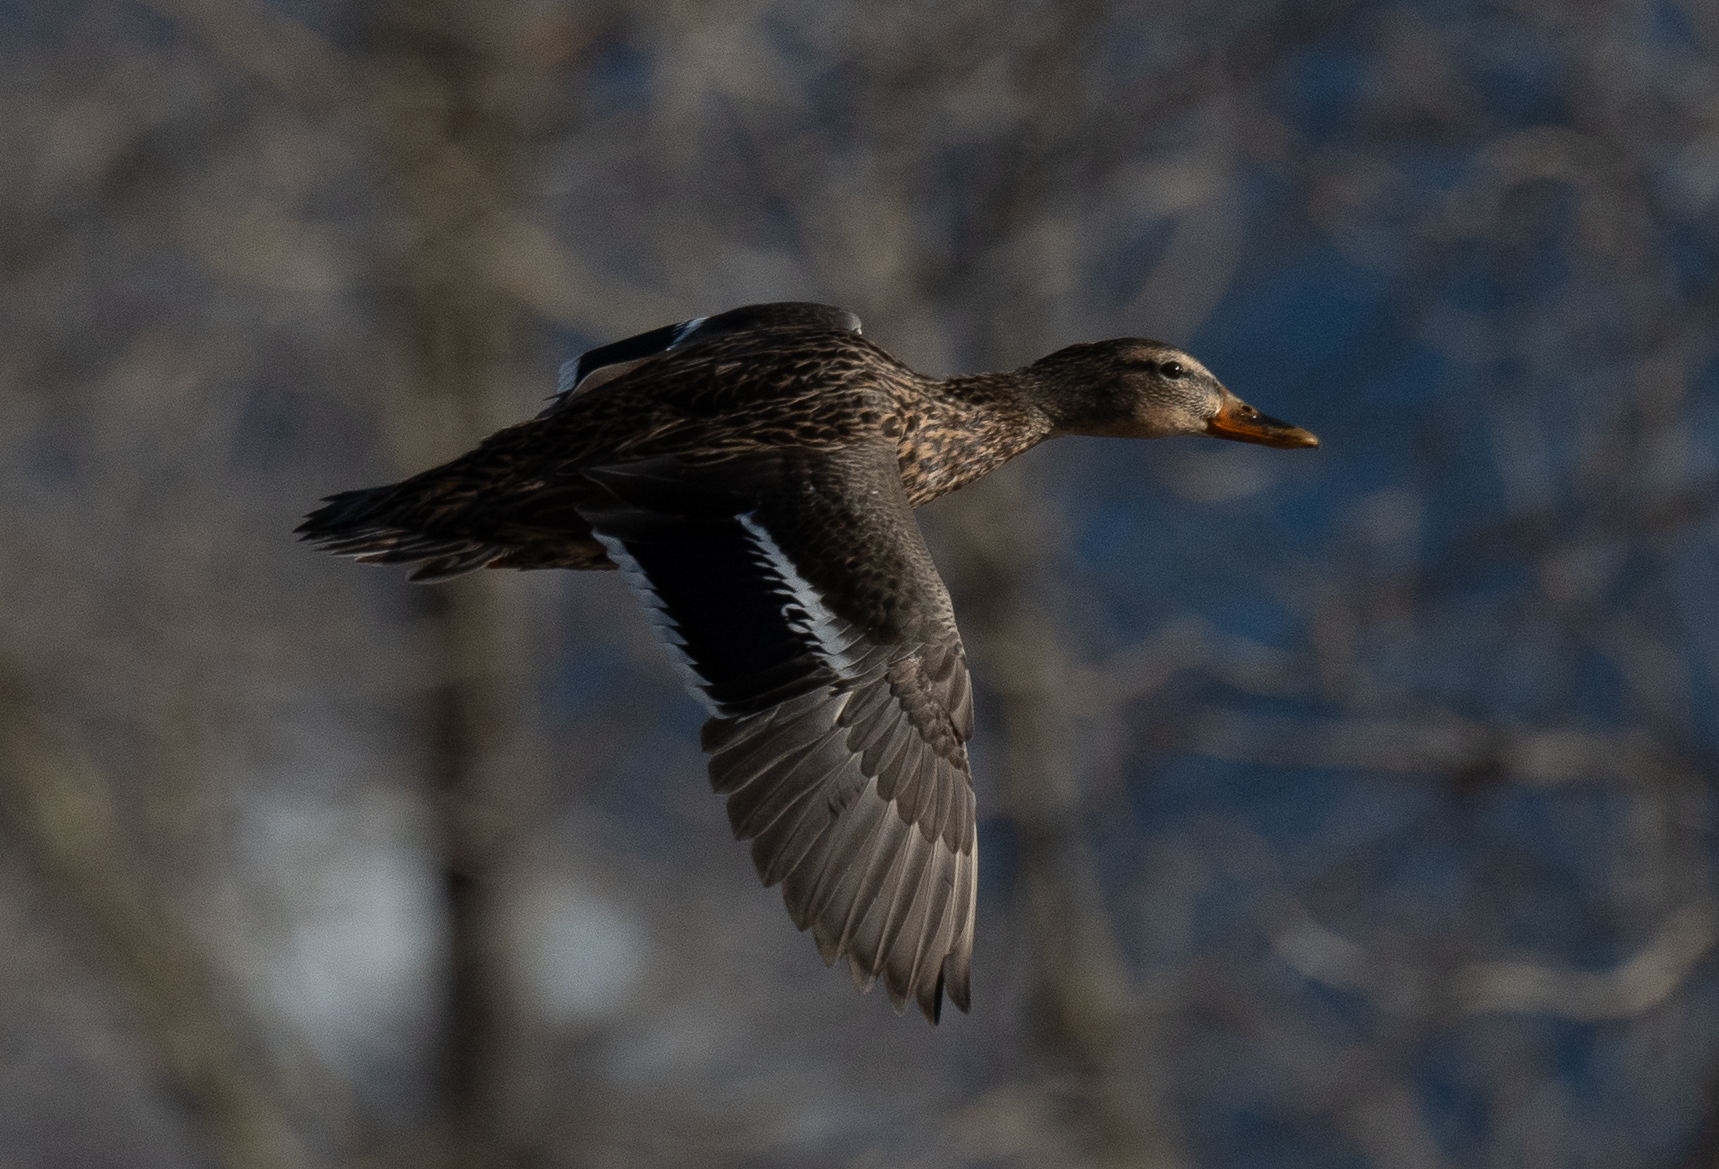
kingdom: Animalia
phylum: Chordata
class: Aves
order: Anseriformes
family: Anatidae
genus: Anas
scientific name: Anas platyrhynchos
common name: Mallard
